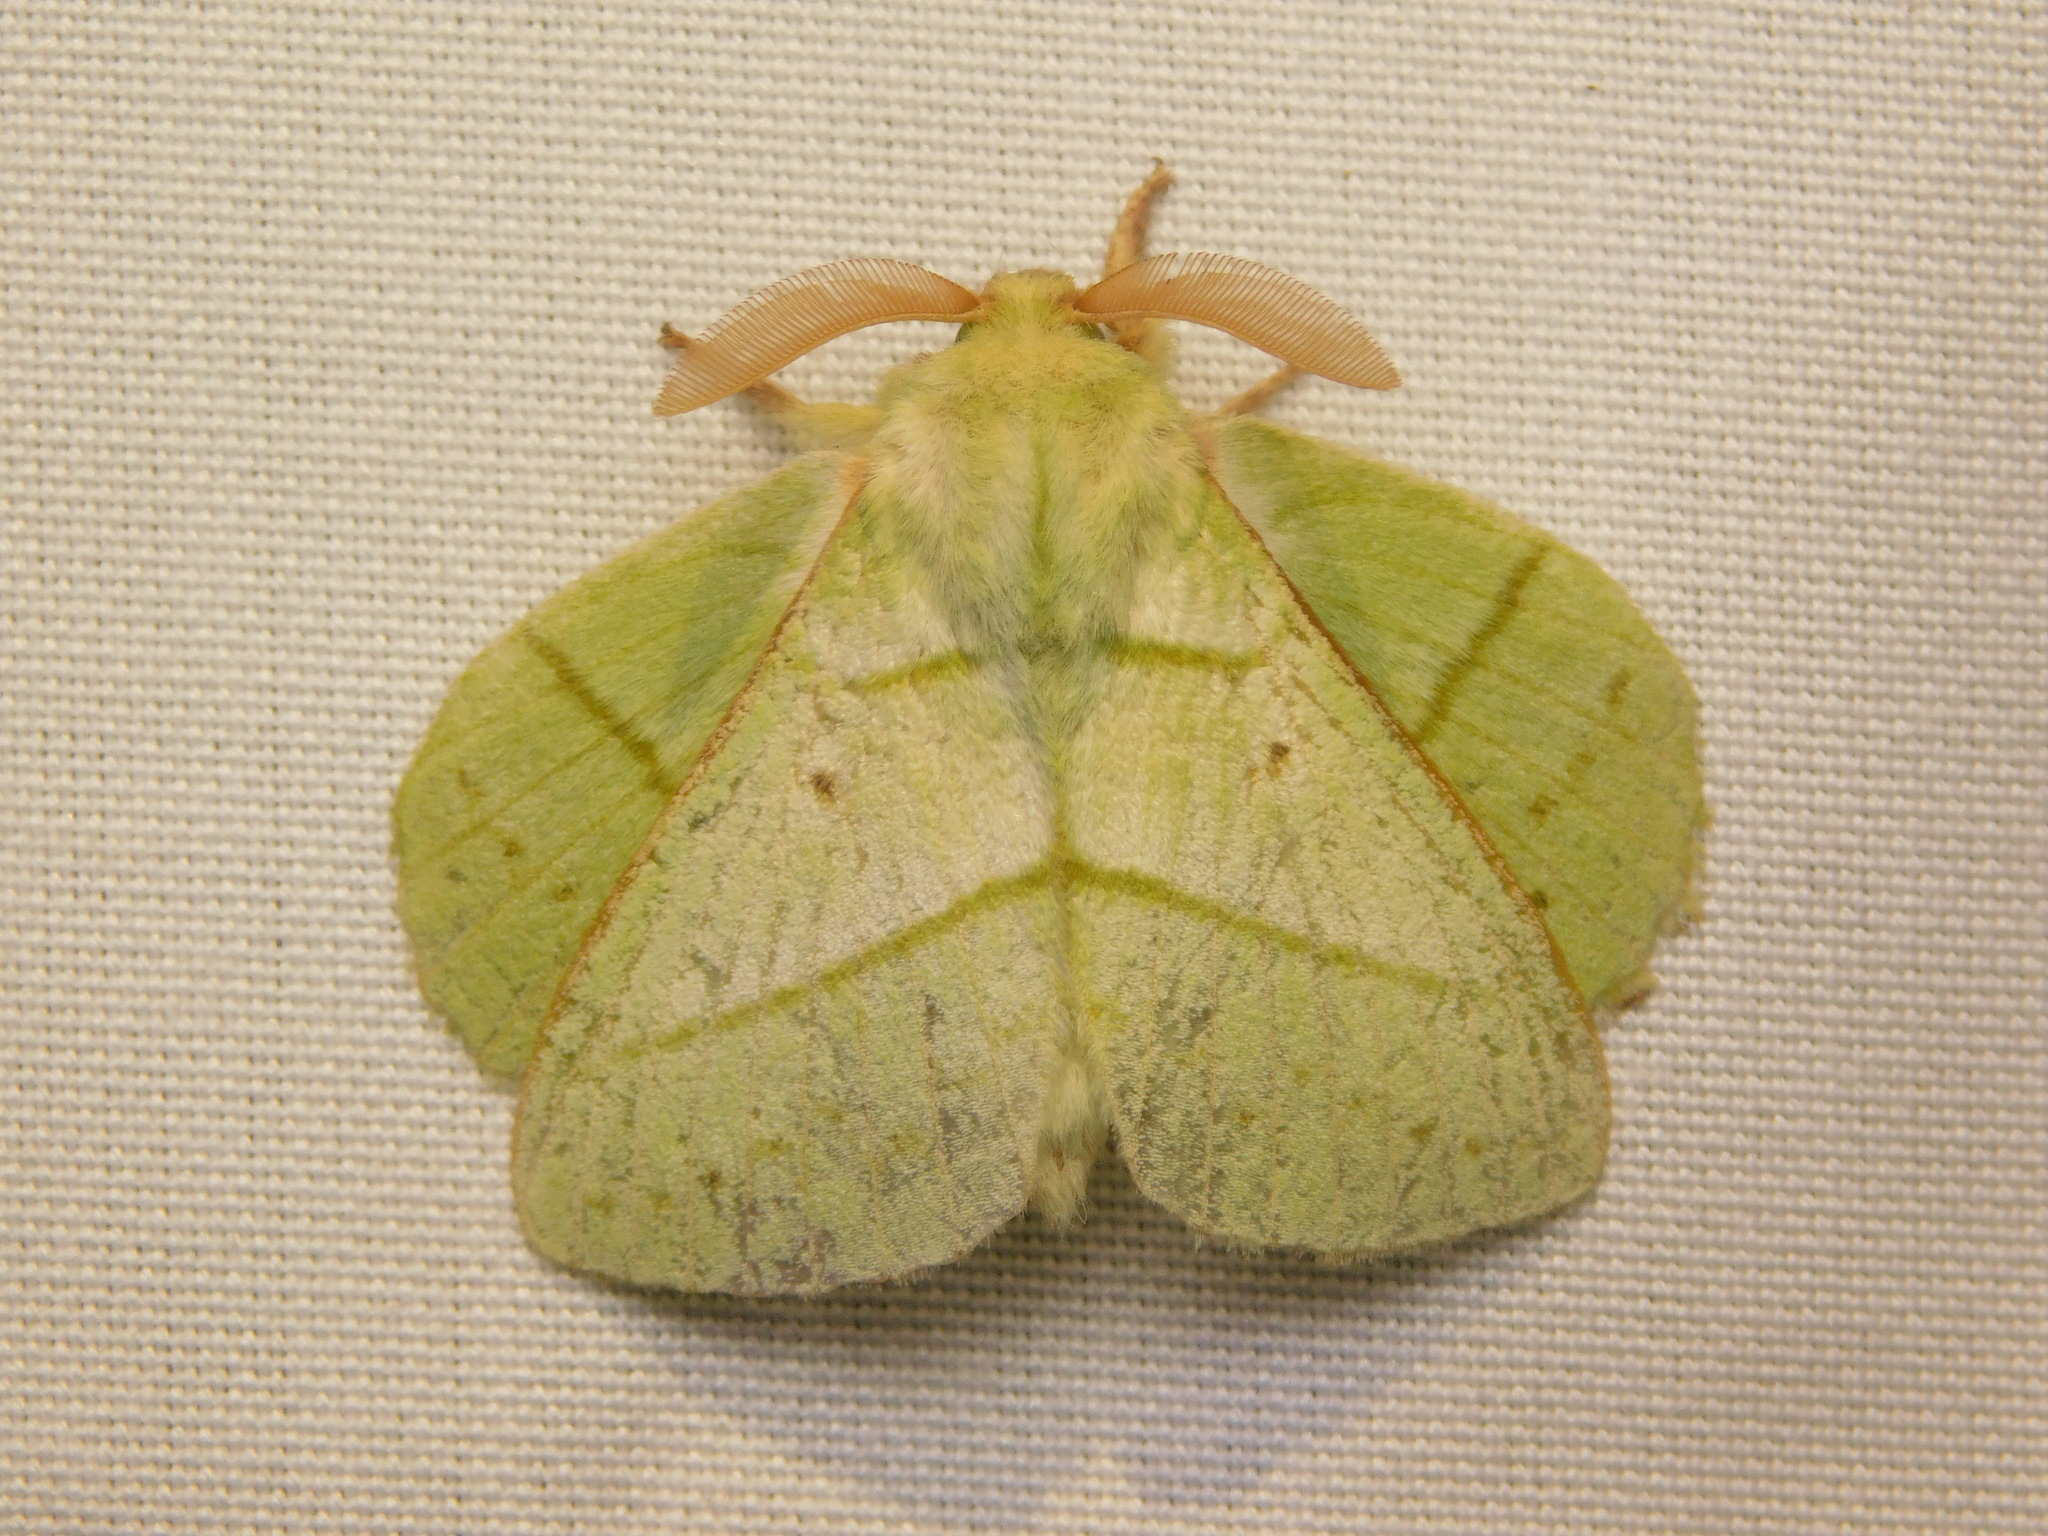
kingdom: Animalia
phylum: Arthropoda
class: Insecta
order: Lepidoptera
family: Lasiocampidae
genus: Trabala
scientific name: Trabala vishnou
